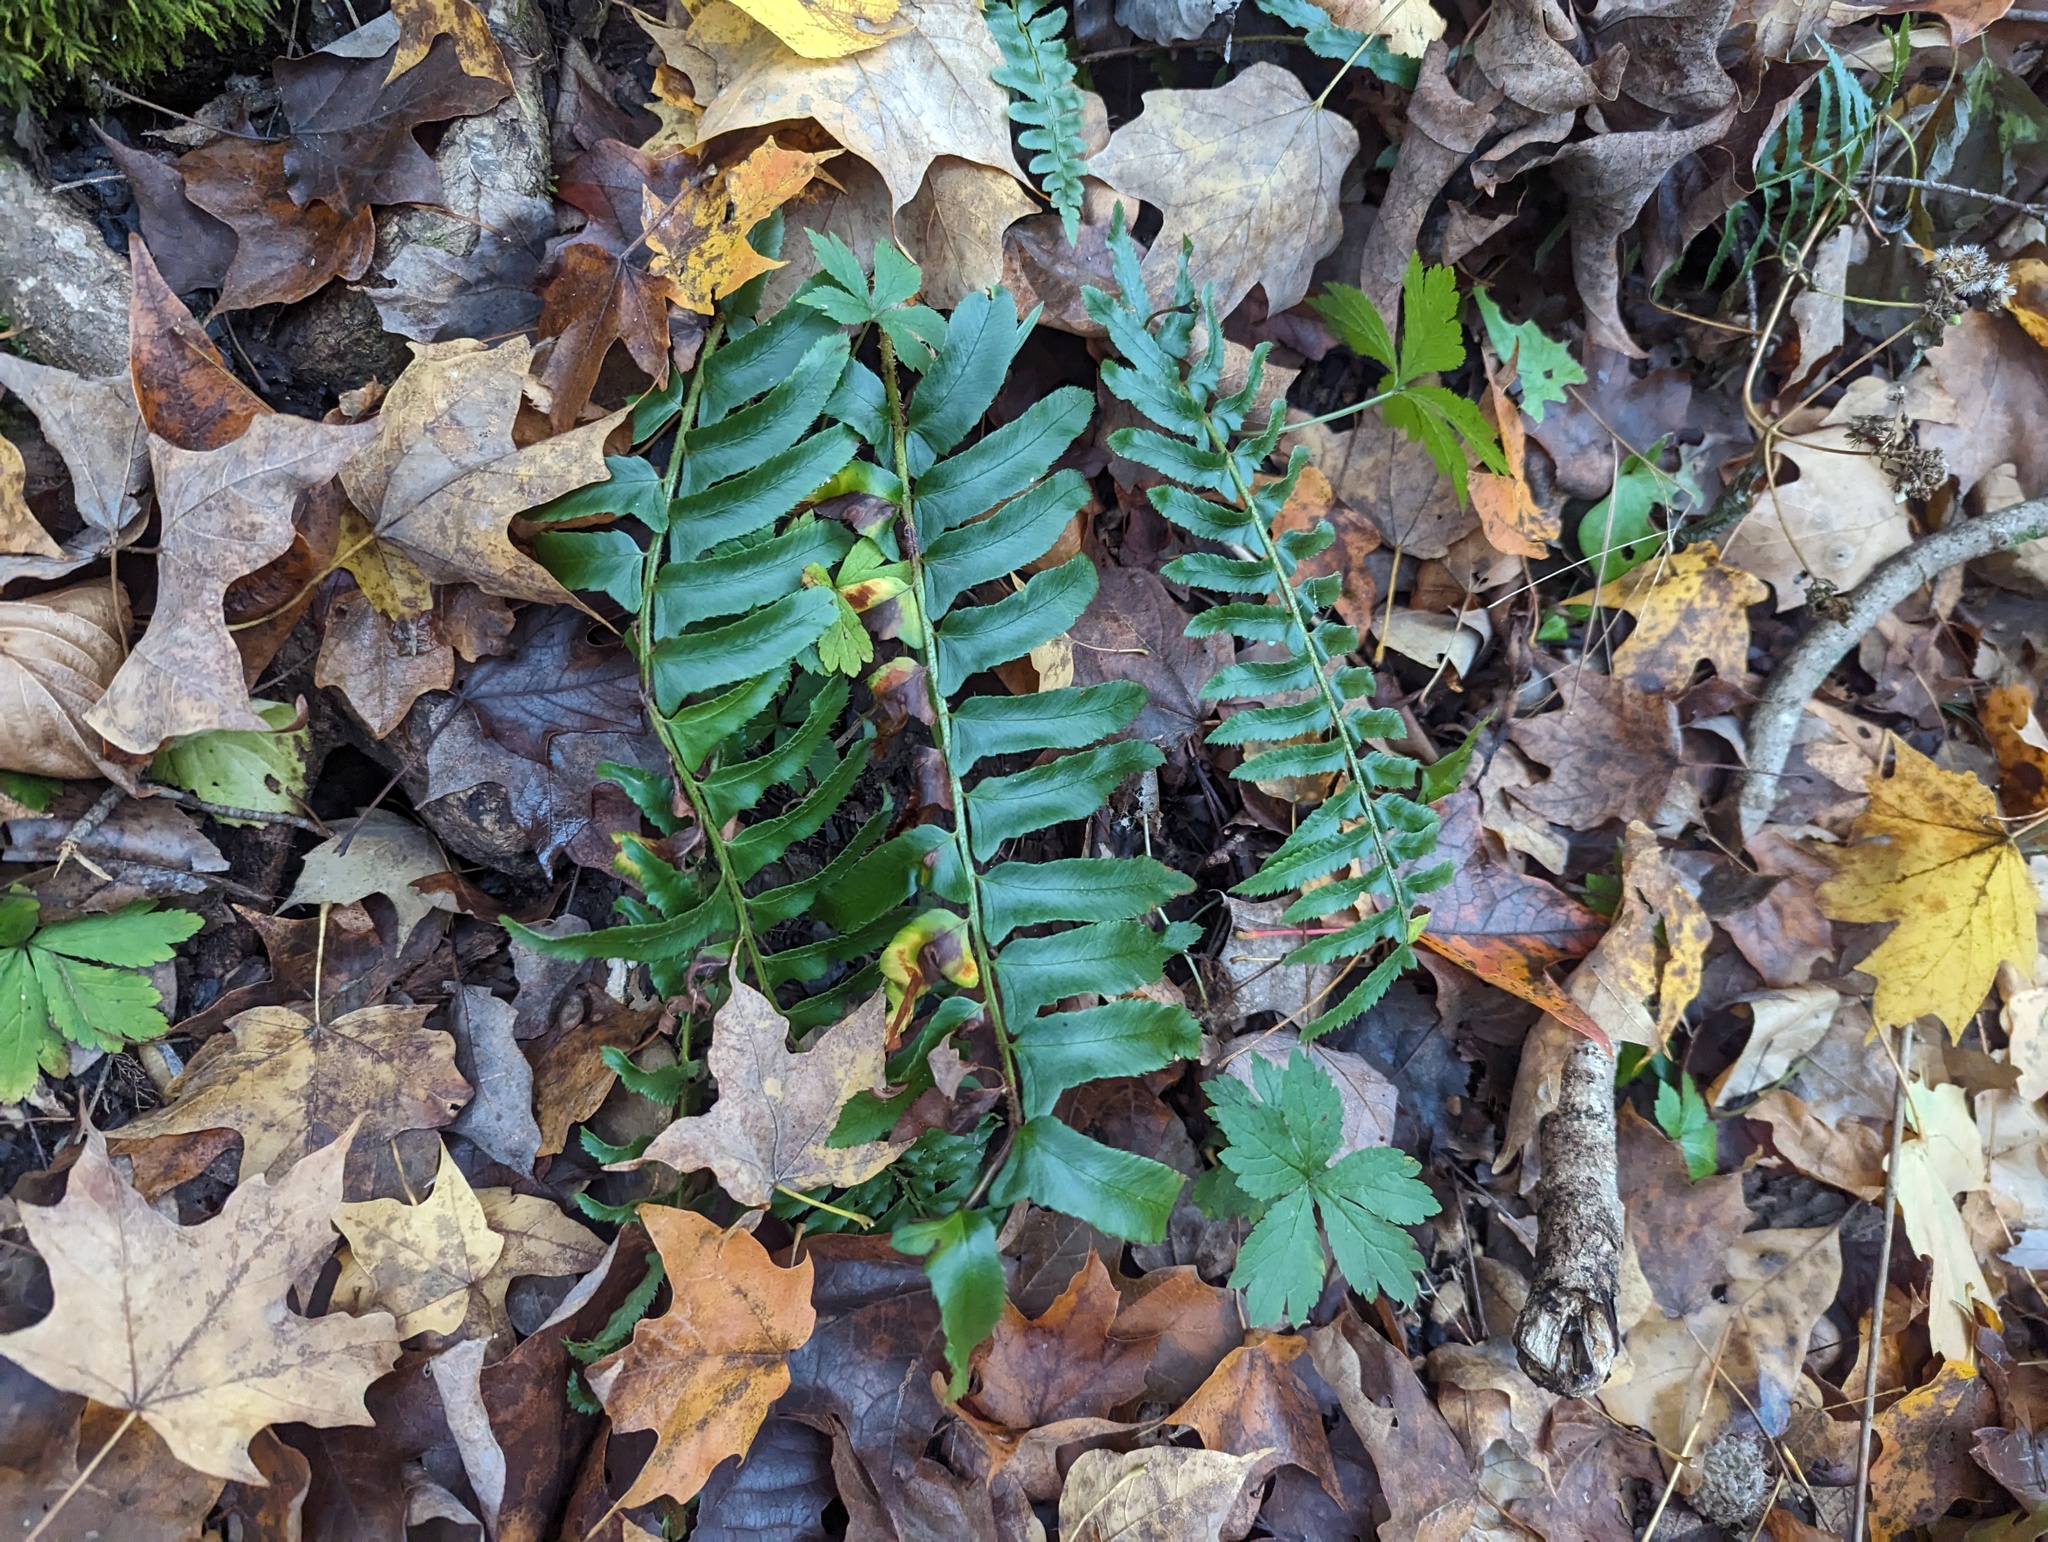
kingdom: Plantae
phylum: Tracheophyta
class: Polypodiopsida
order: Polypodiales
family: Dryopteridaceae
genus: Polystichum
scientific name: Polystichum acrostichoides
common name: Christmas fern
